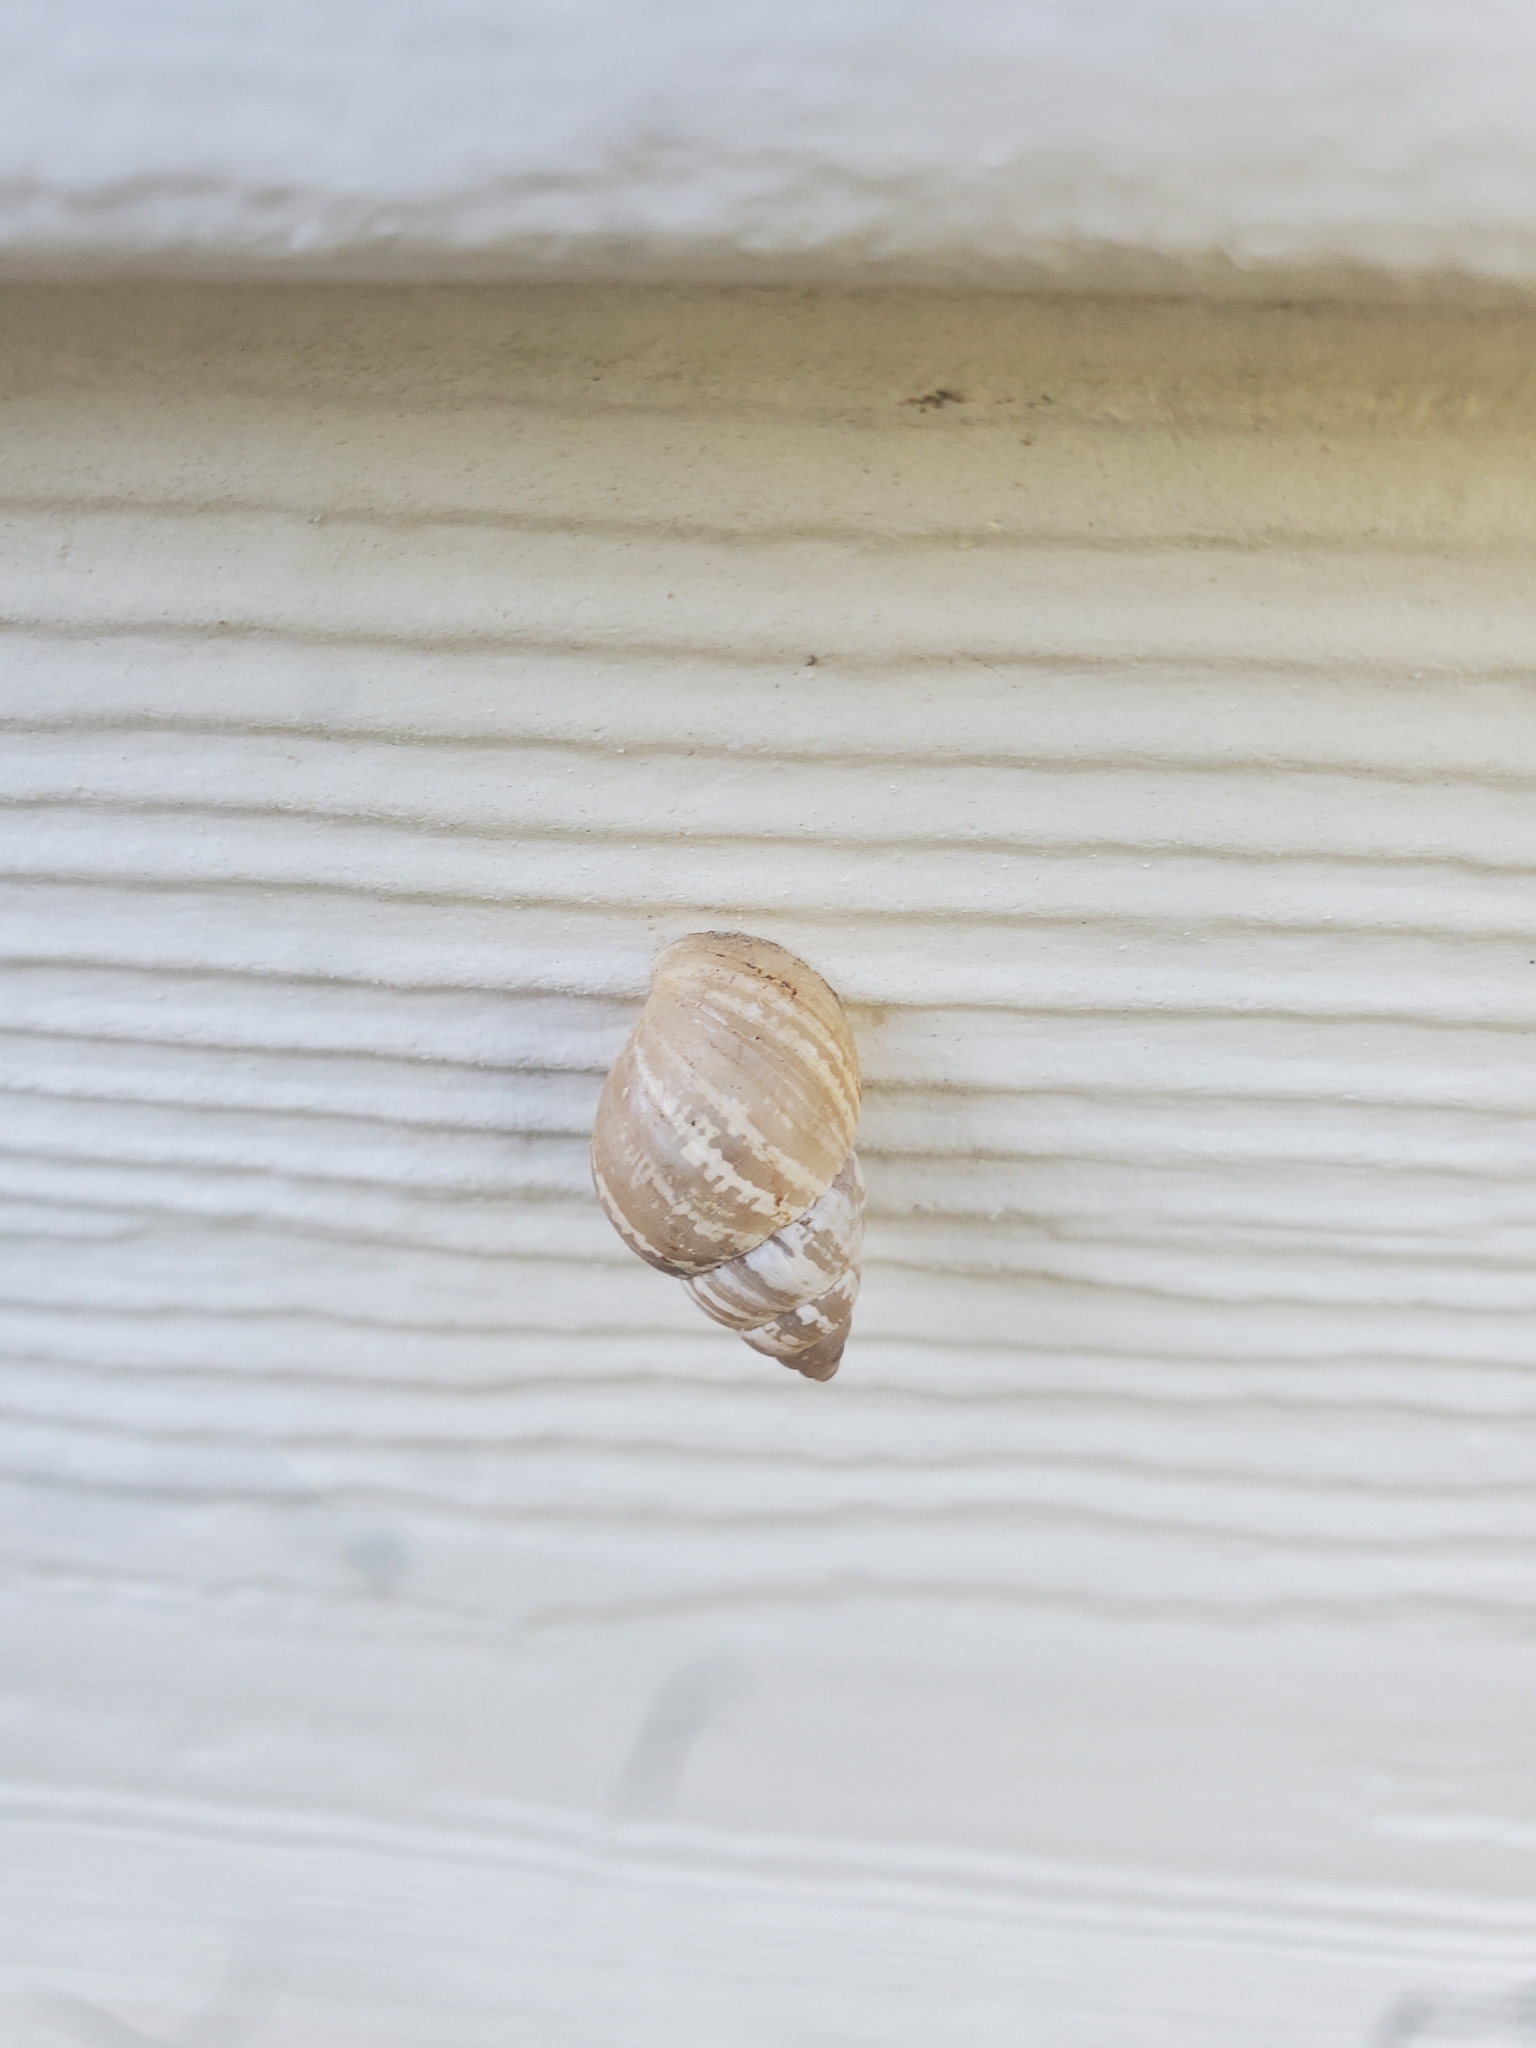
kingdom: Animalia
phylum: Mollusca
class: Gastropoda
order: Stylommatophora
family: Bulimulidae
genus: Rabdotus
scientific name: Rabdotus dealbatus
